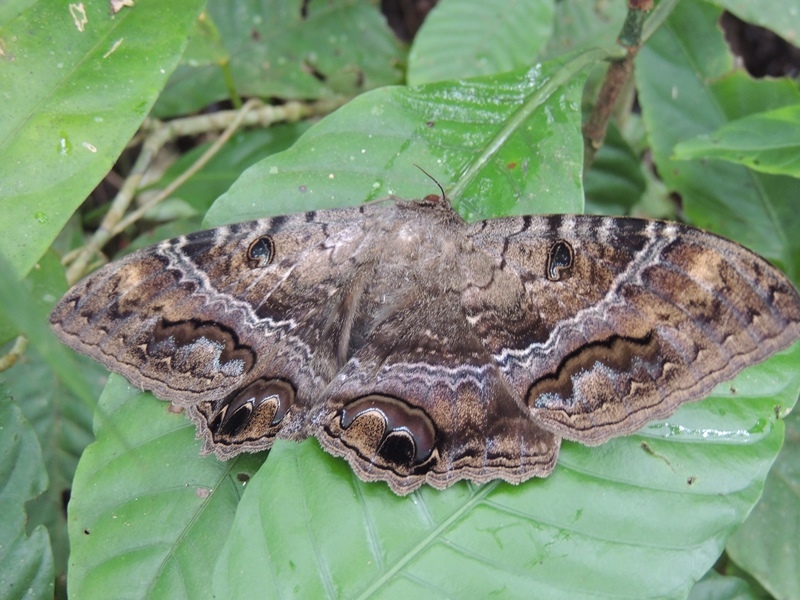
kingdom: Animalia
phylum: Arthropoda
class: Insecta
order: Lepidoptera
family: Erebidae
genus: Ascalapha
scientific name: Ascalapha odorata
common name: Black witch
